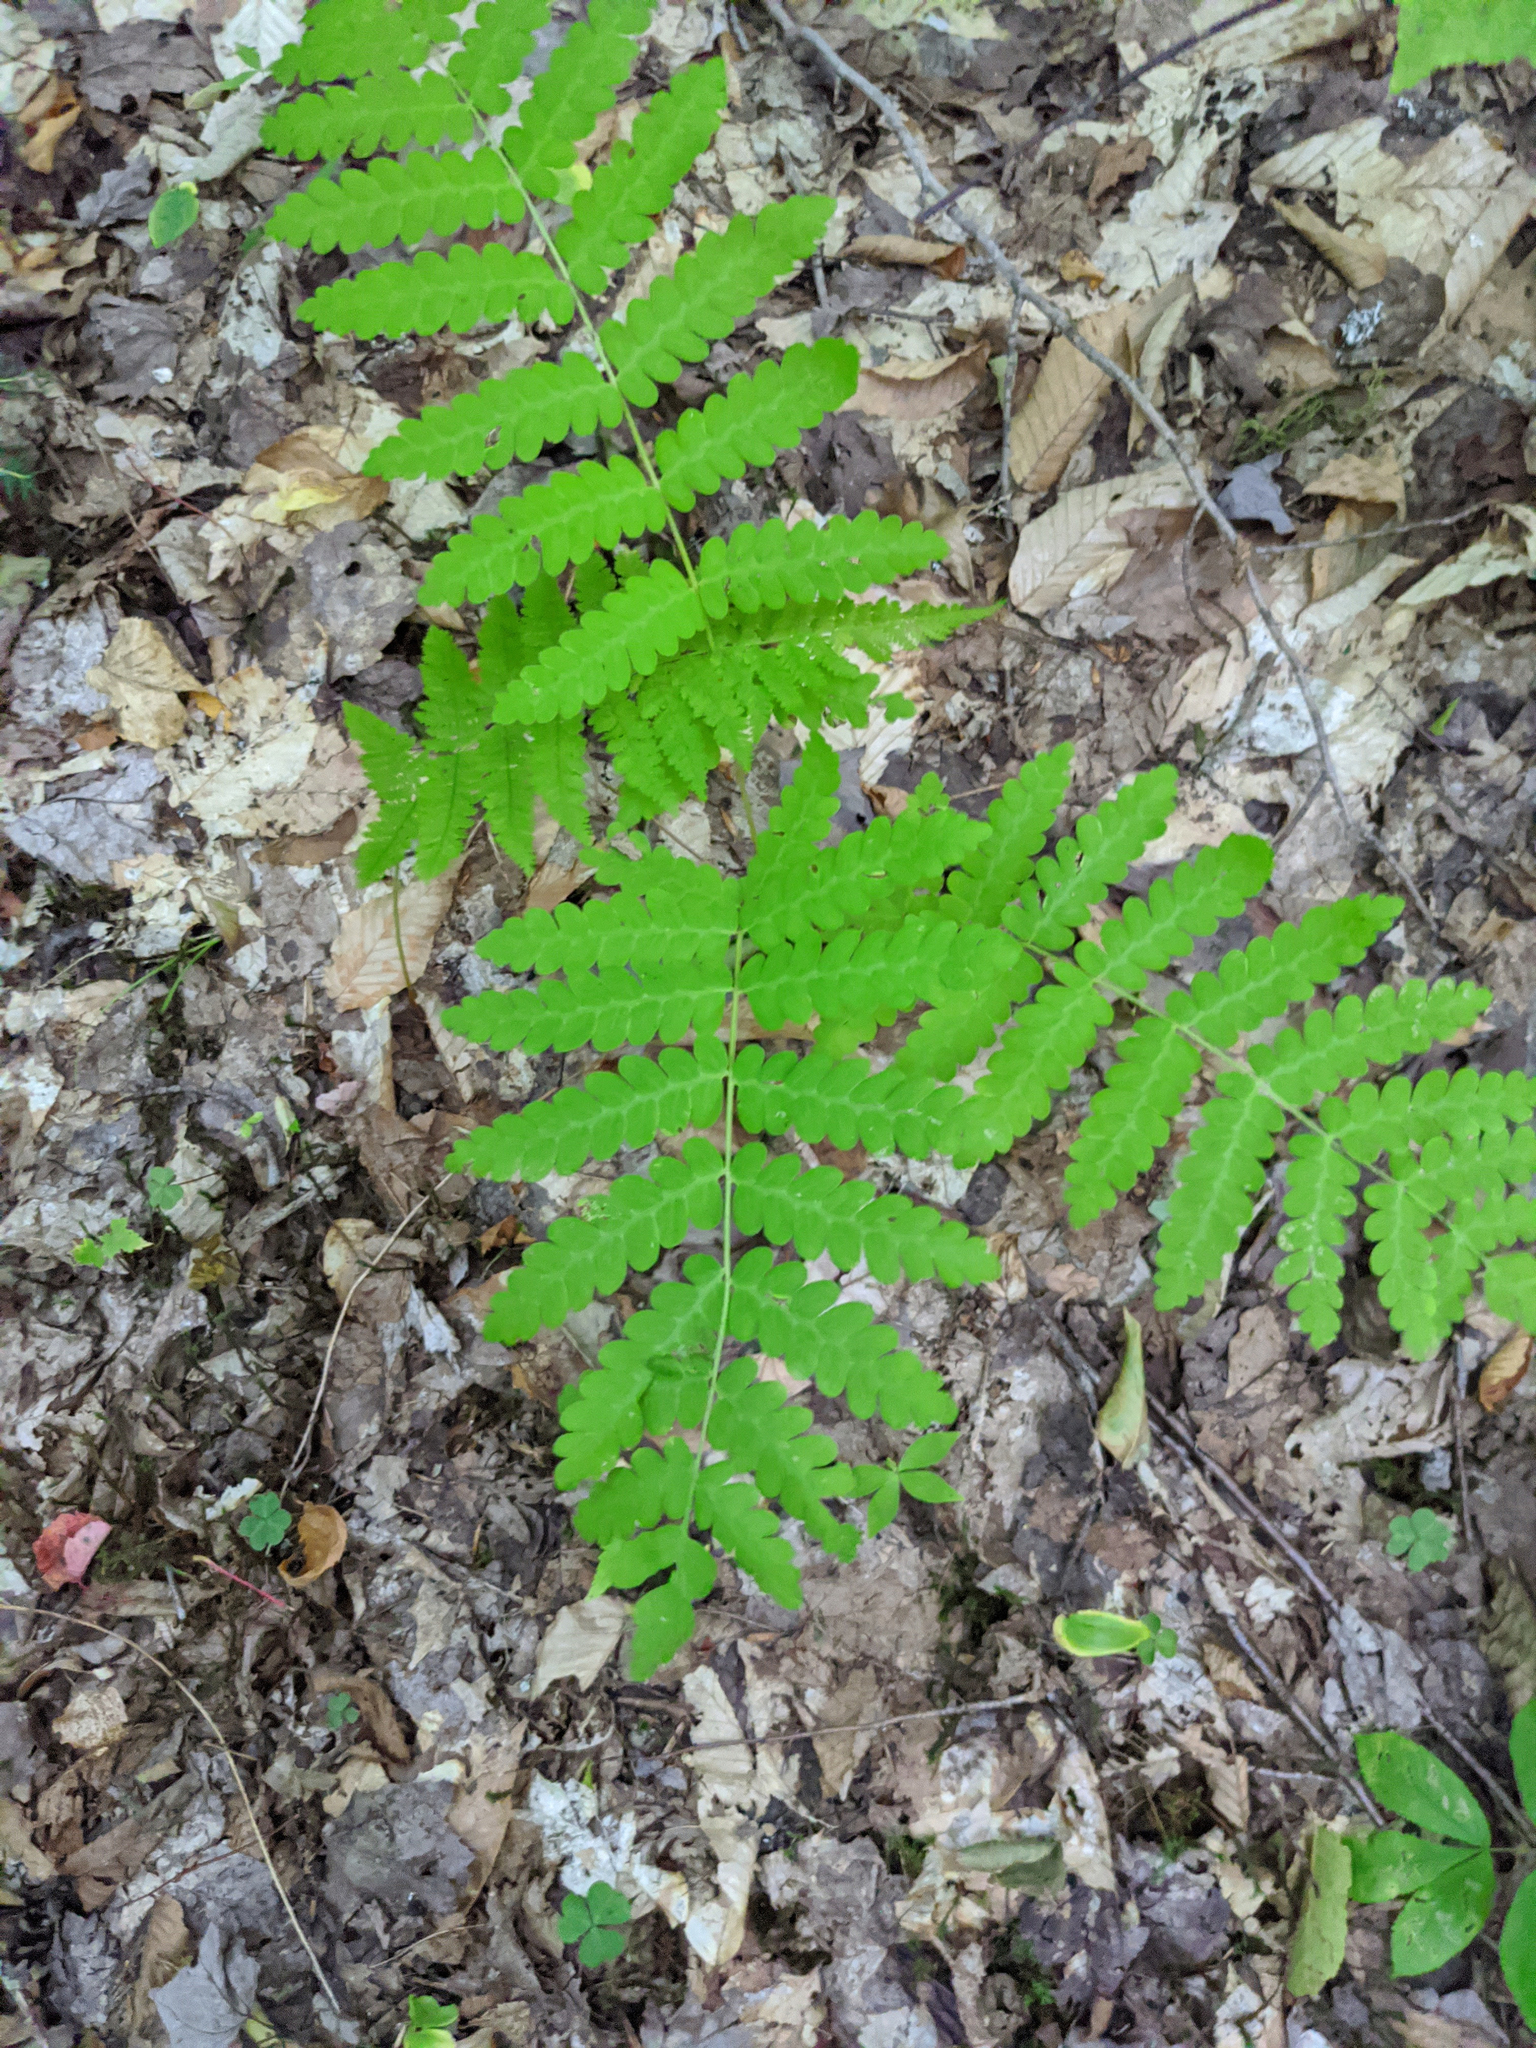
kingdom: Plantae
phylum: Tracheophyta
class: Polypodiopsida
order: Osmundales
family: Osmundaceae
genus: Claytosmunda
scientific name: Claytosmunda claytoniana
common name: Clayton's fern
